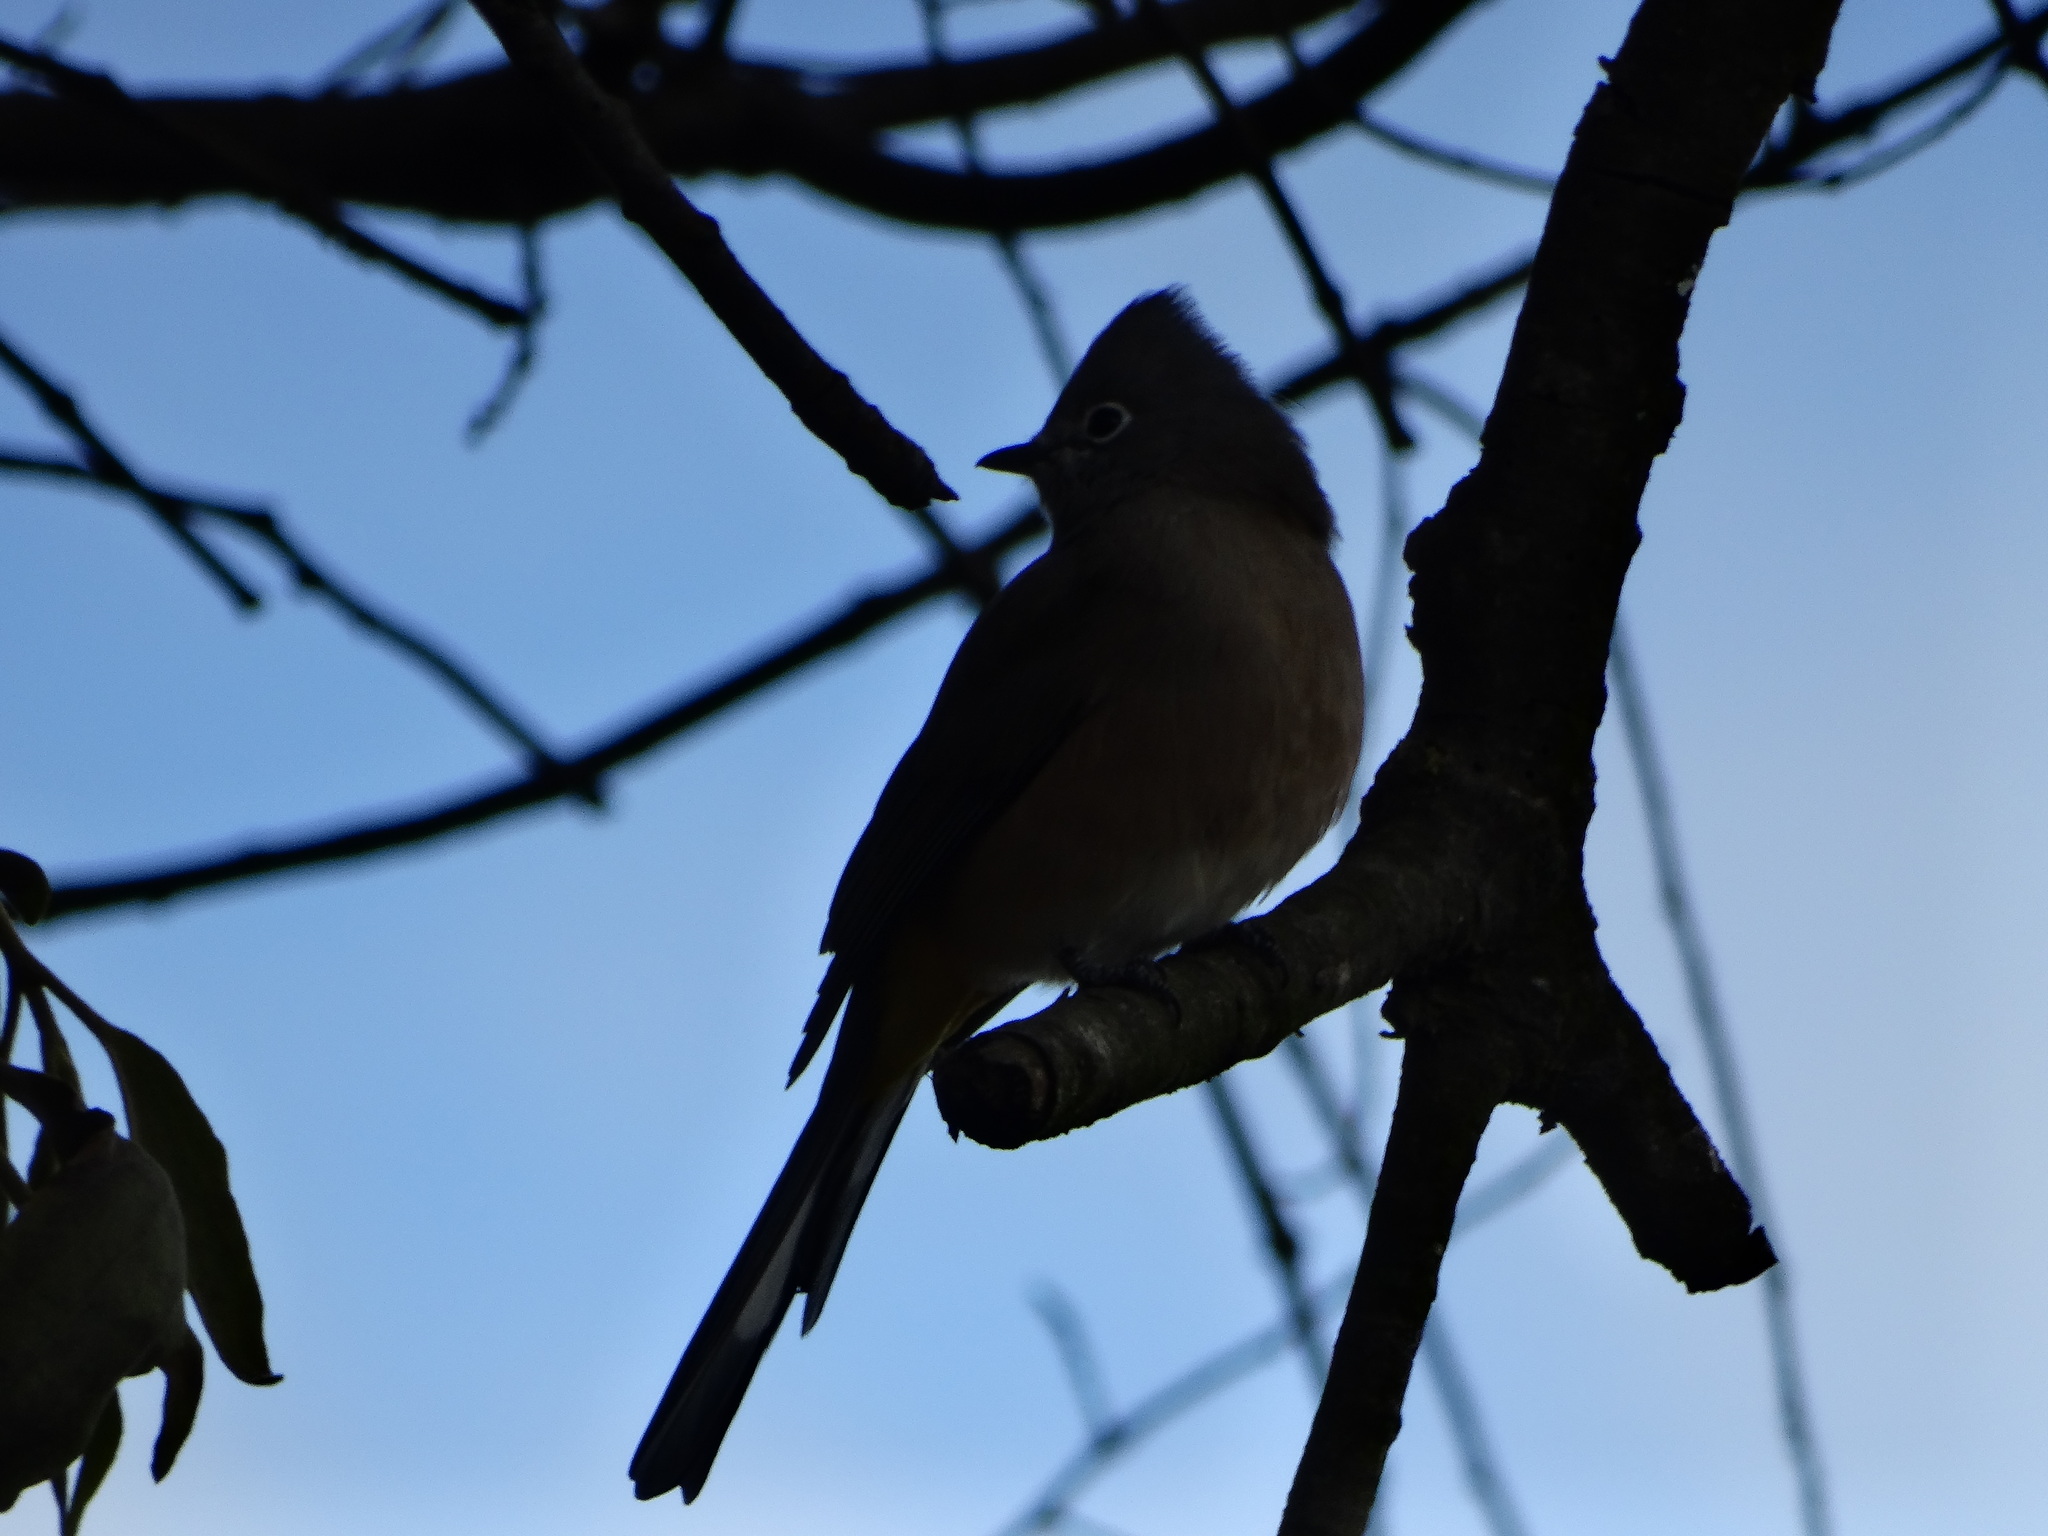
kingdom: Animalia
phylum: Chordata
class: Aves
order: Passeriformes
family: Ptilogonatidae
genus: Ptilogonys
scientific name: Ptilogonys cinereus
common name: Gray silky-flycatcher
